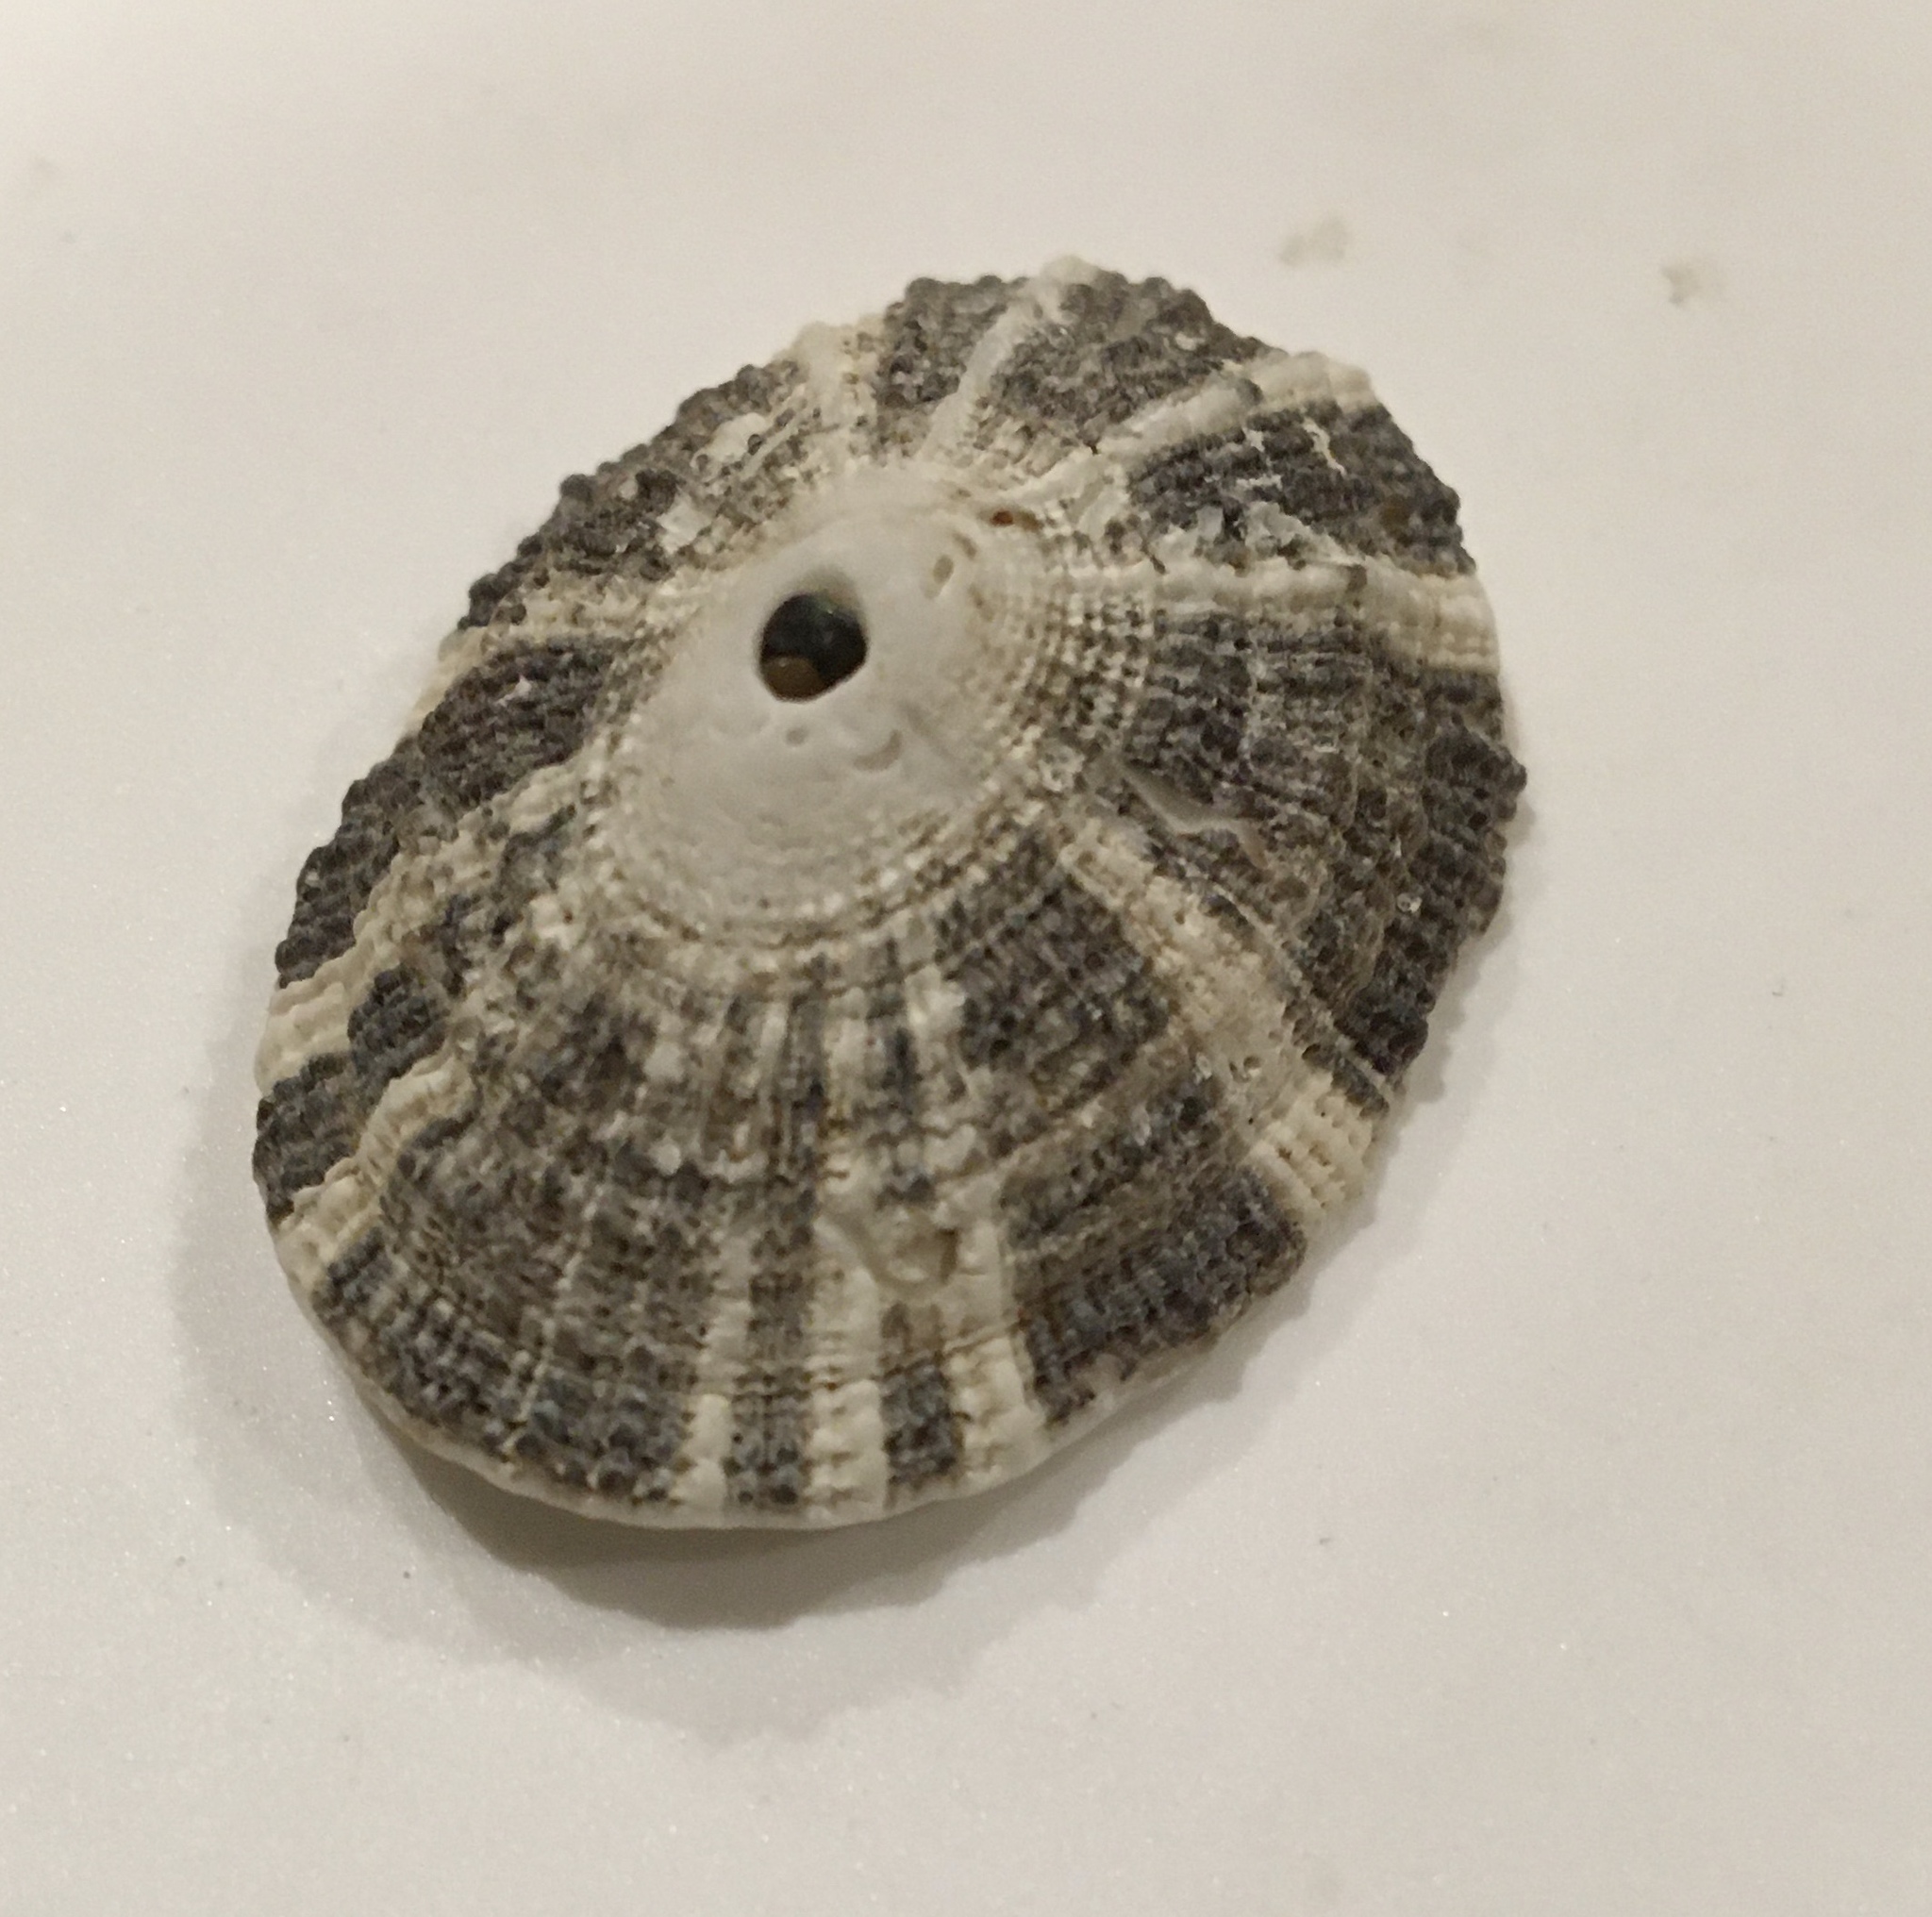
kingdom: Animalia
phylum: Mollusca
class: Gastropoda
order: Lepetellida
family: Fissurellidae
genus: Diodora
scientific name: Diodora aspera
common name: Rough keyhole limpet
